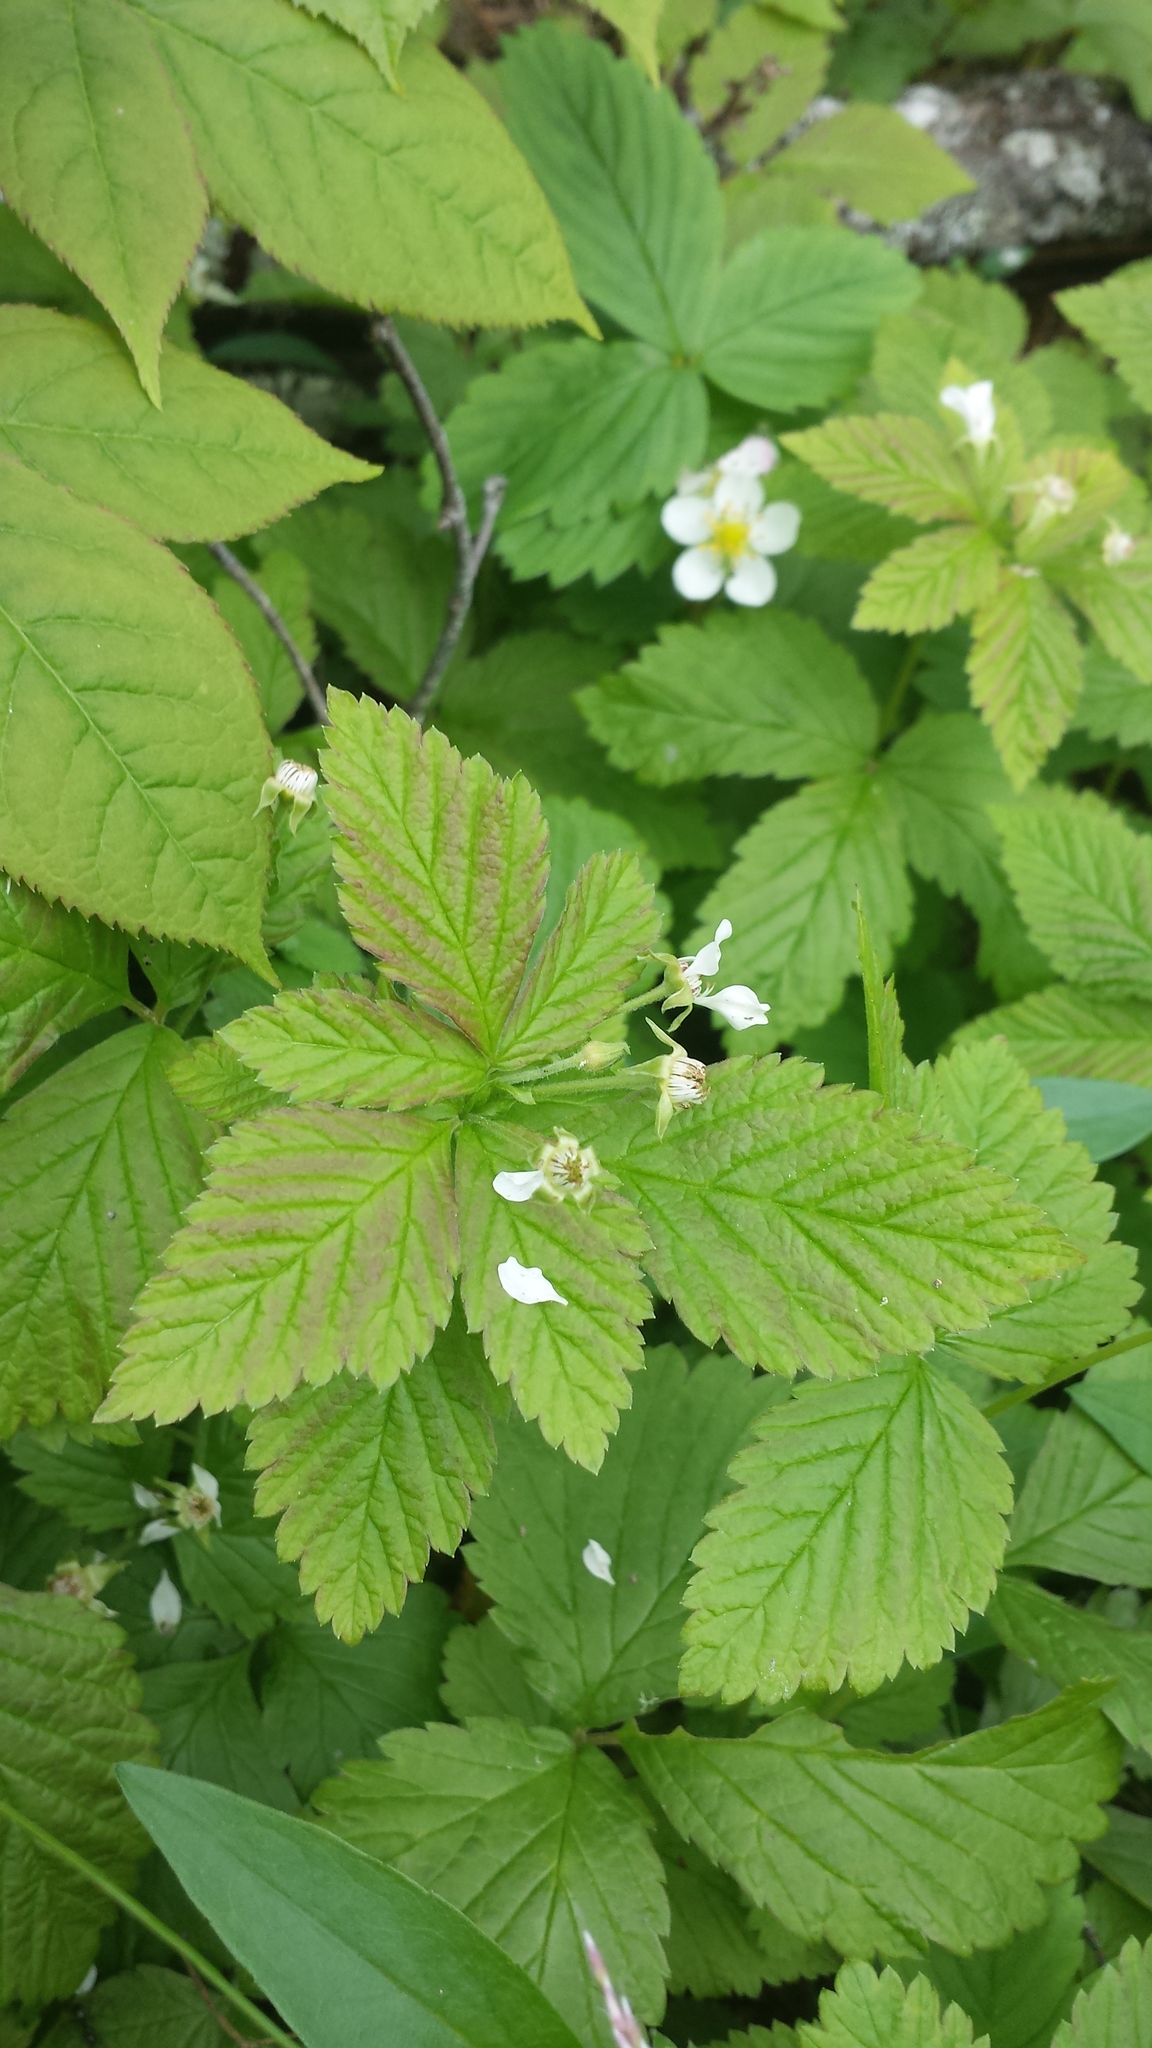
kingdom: Plantae
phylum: Tracheophyta
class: Magnoliopsida
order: Rosales
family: Rosaceae
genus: Rubus
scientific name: Rubus pubescens
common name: Dwarf raspberry
